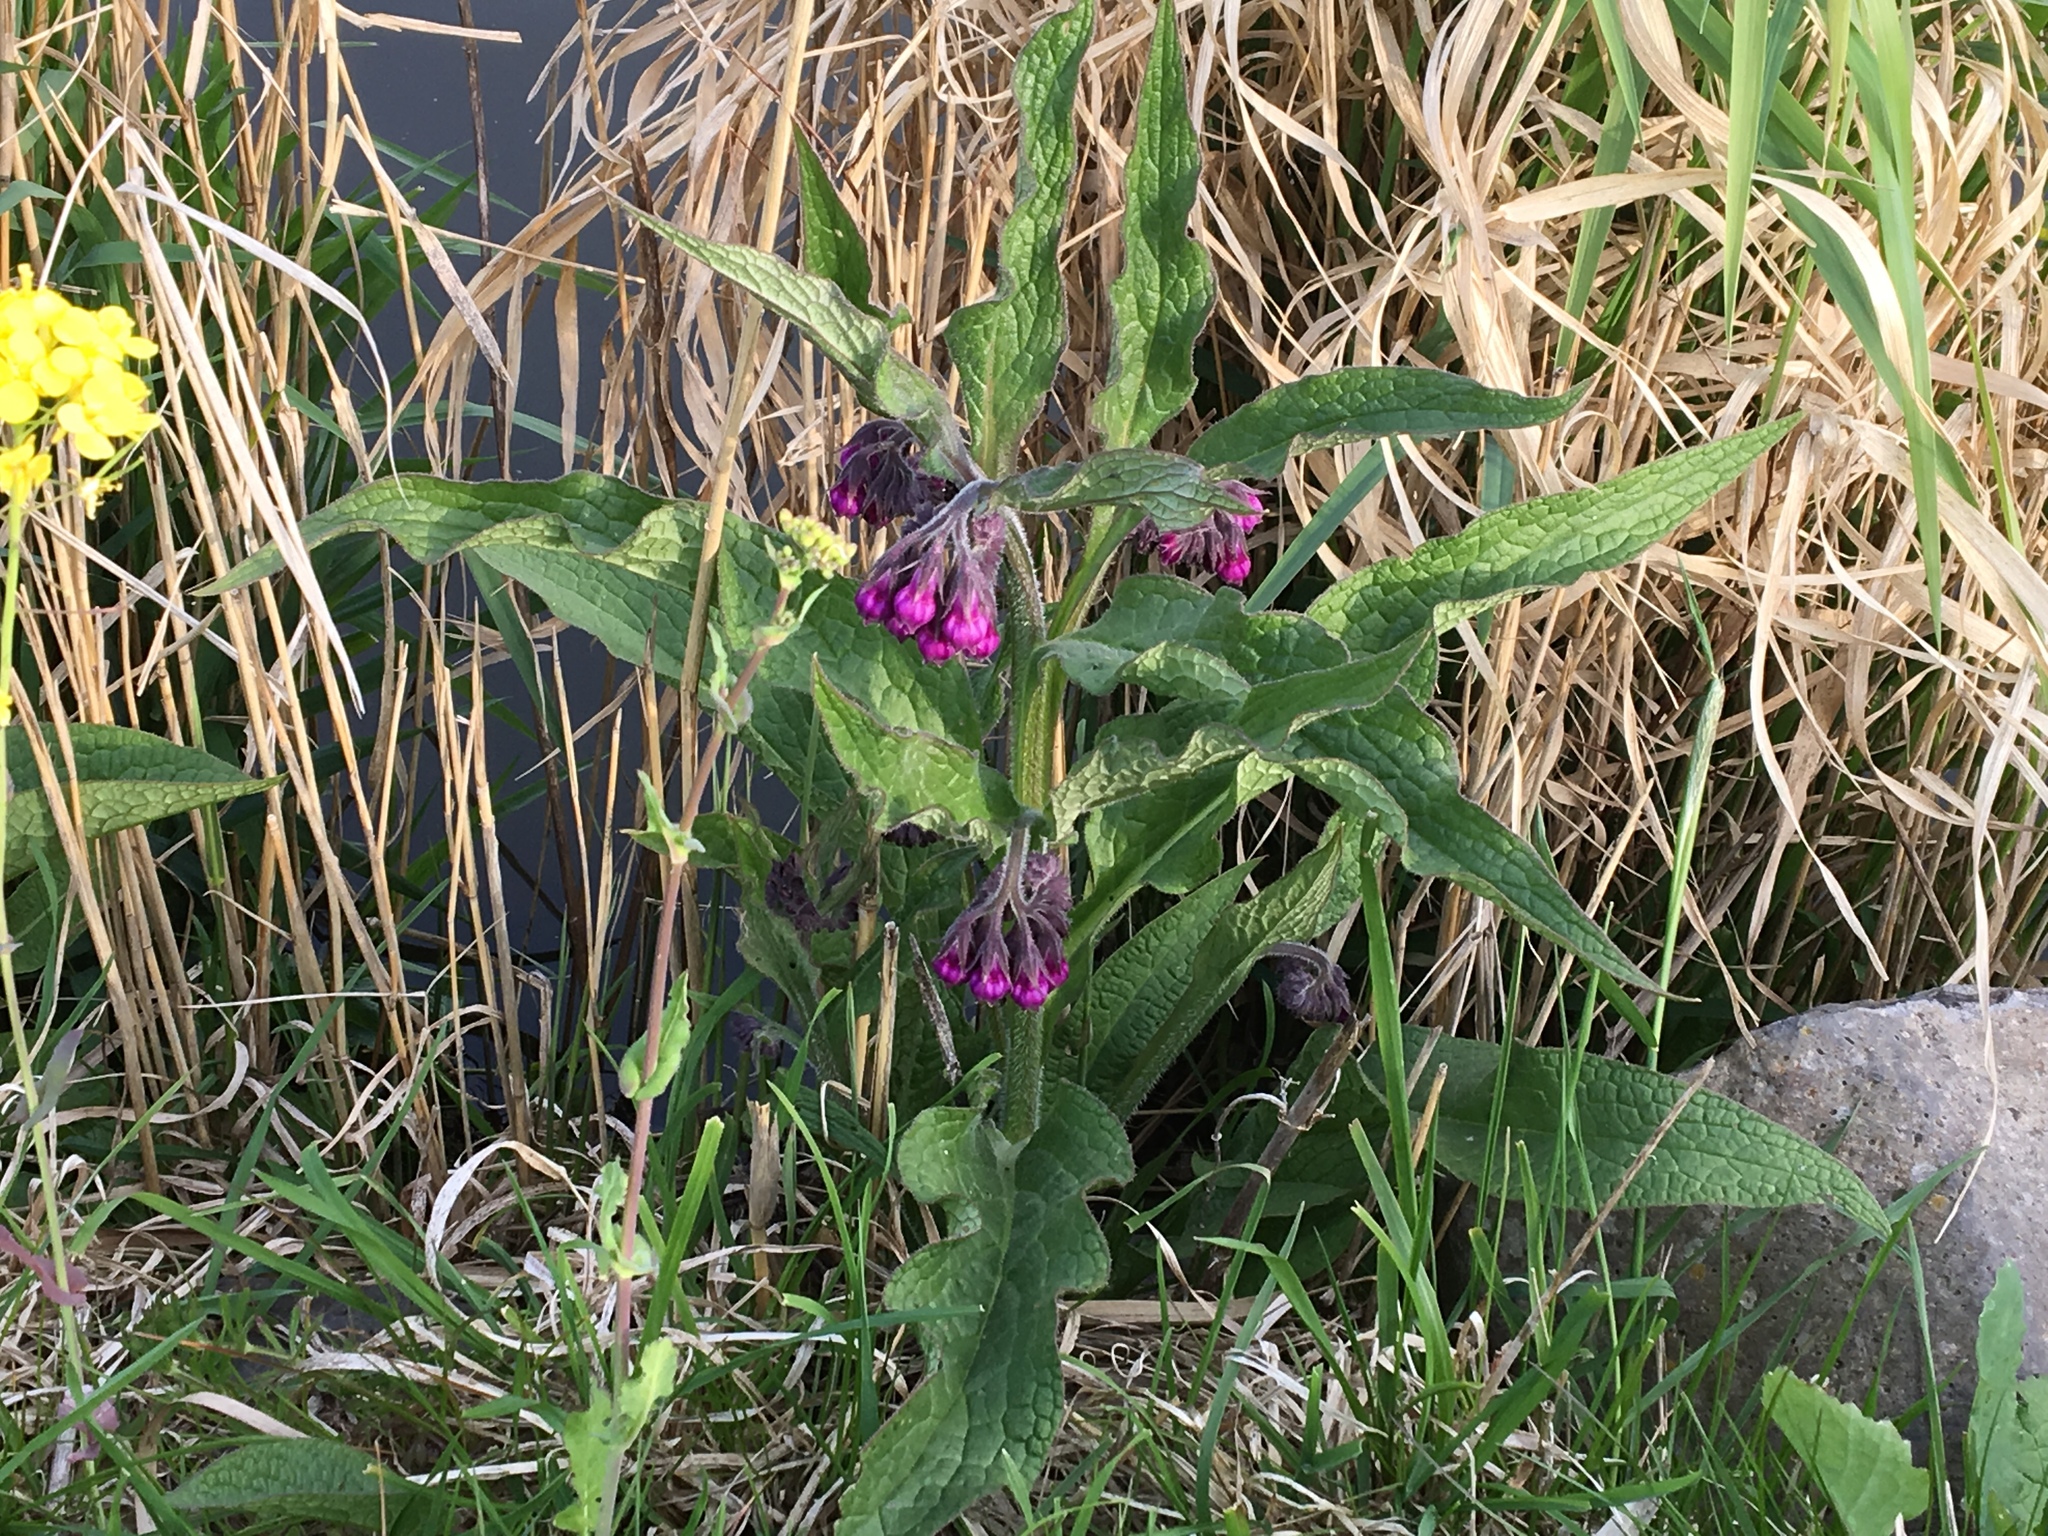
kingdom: Plantae
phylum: Tracheophyta
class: Magnoliopsida
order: Boraginales
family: Boraginaceae
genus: Symphytum
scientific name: Symphytum officinale
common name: Common comfrey
